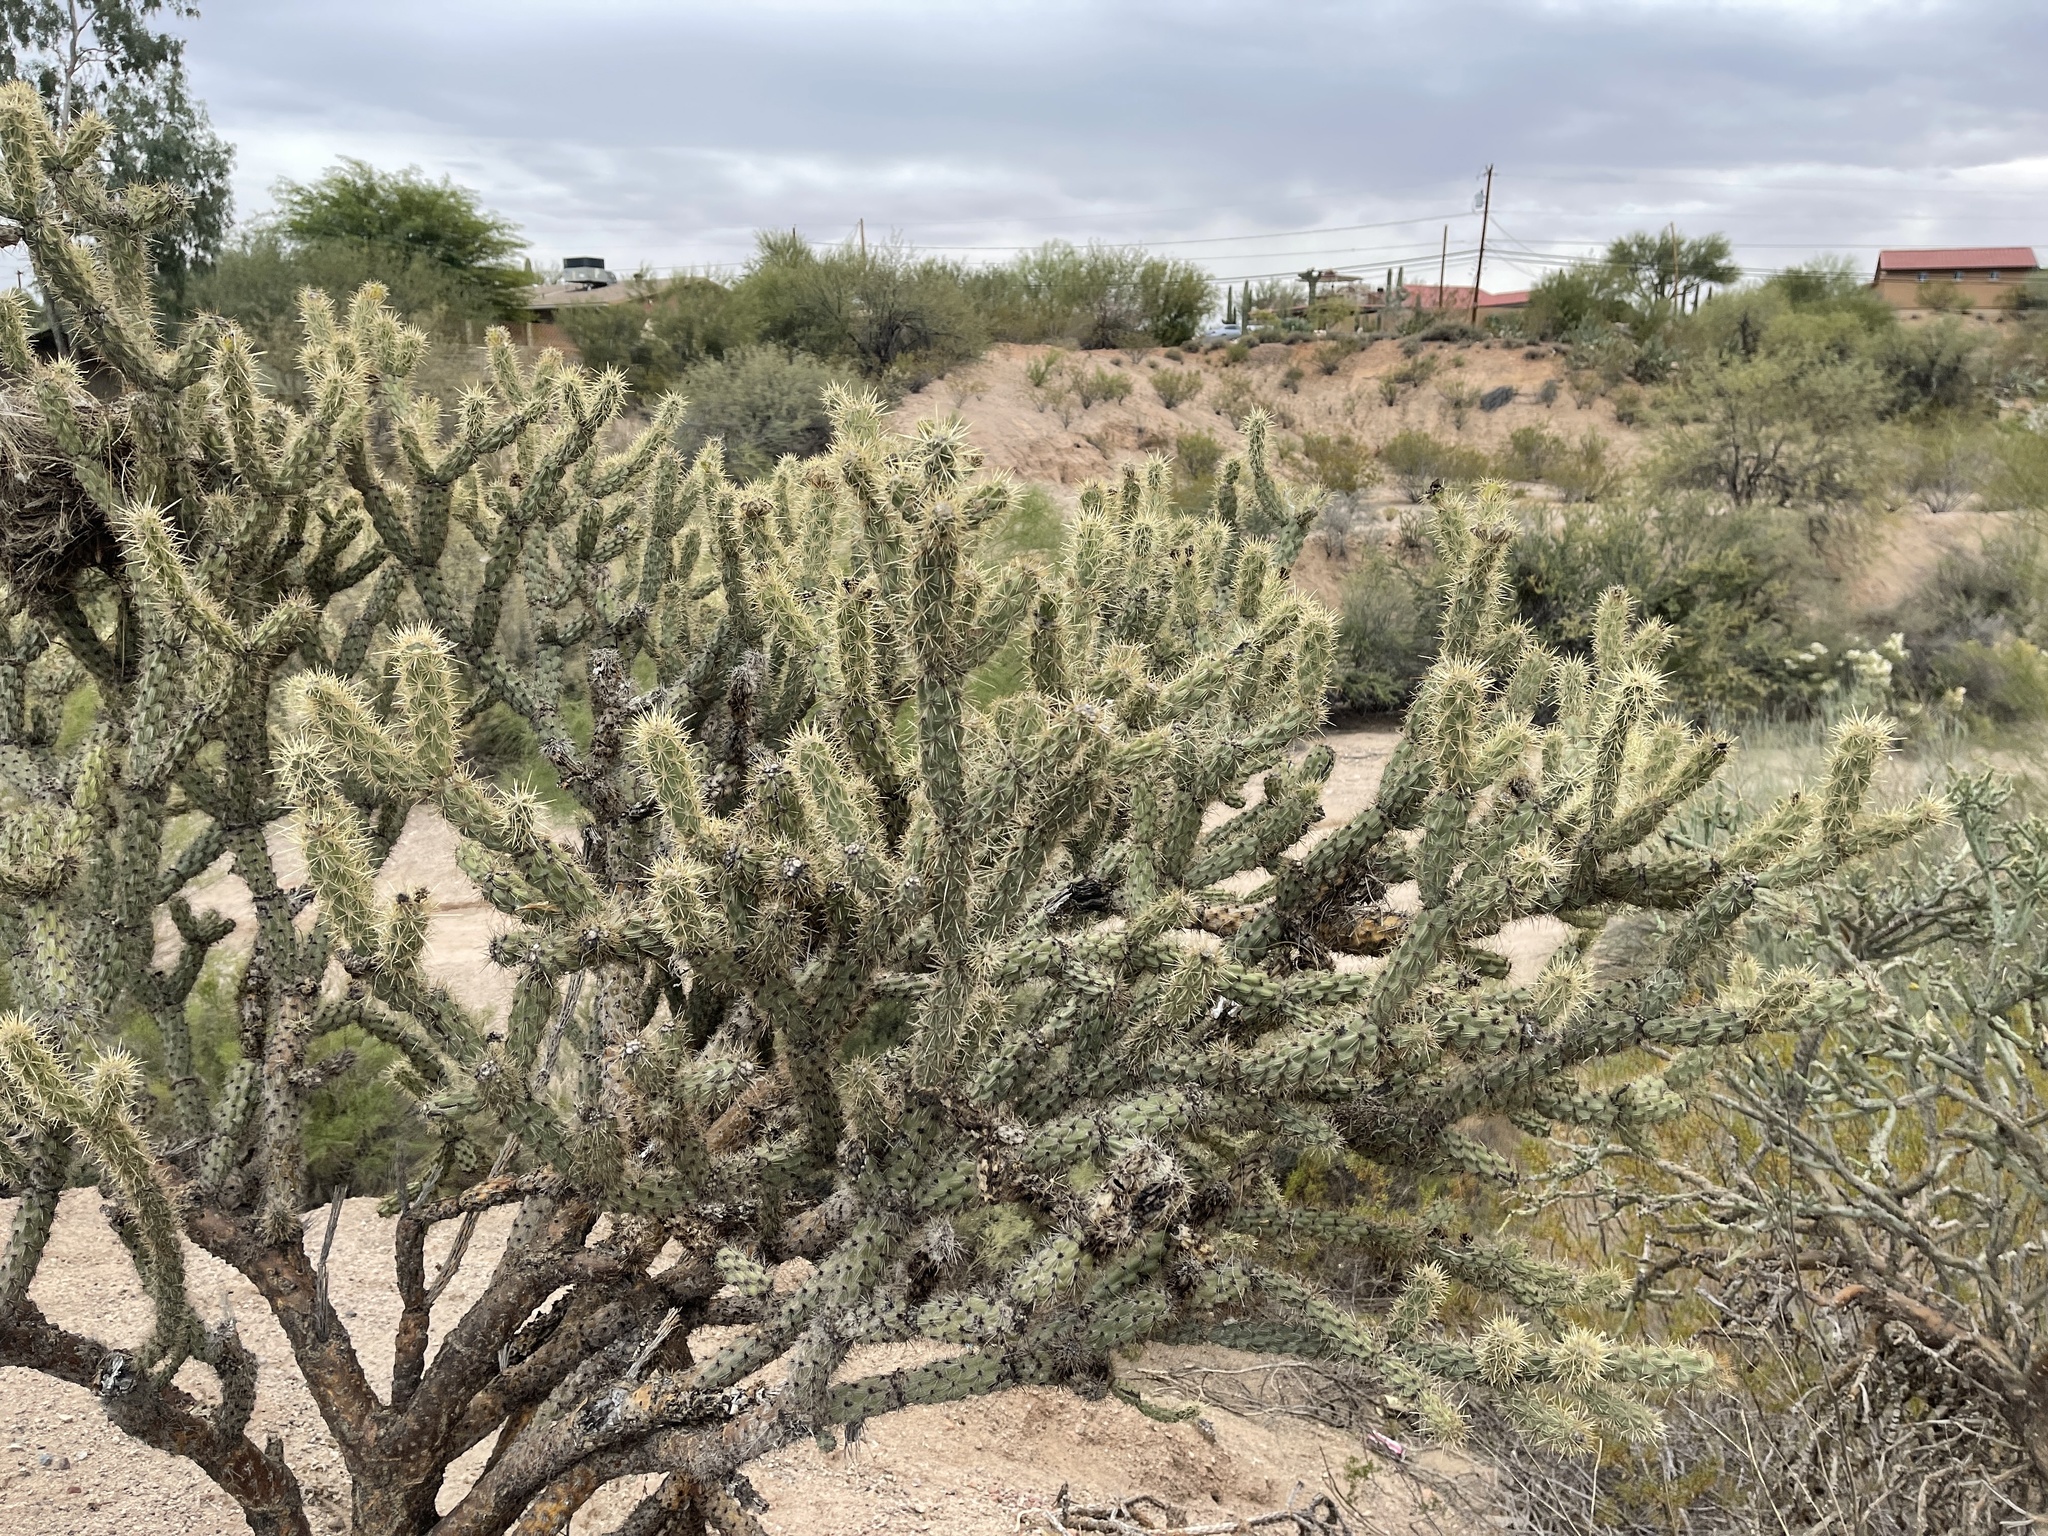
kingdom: Plantae
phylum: Tracheophyta
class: Magnoliopsida
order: Caryophyllales
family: Cactaceae
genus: Cylindropuntia
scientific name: Cylindropuntia acanthocarpa
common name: Buckhorn cholla
